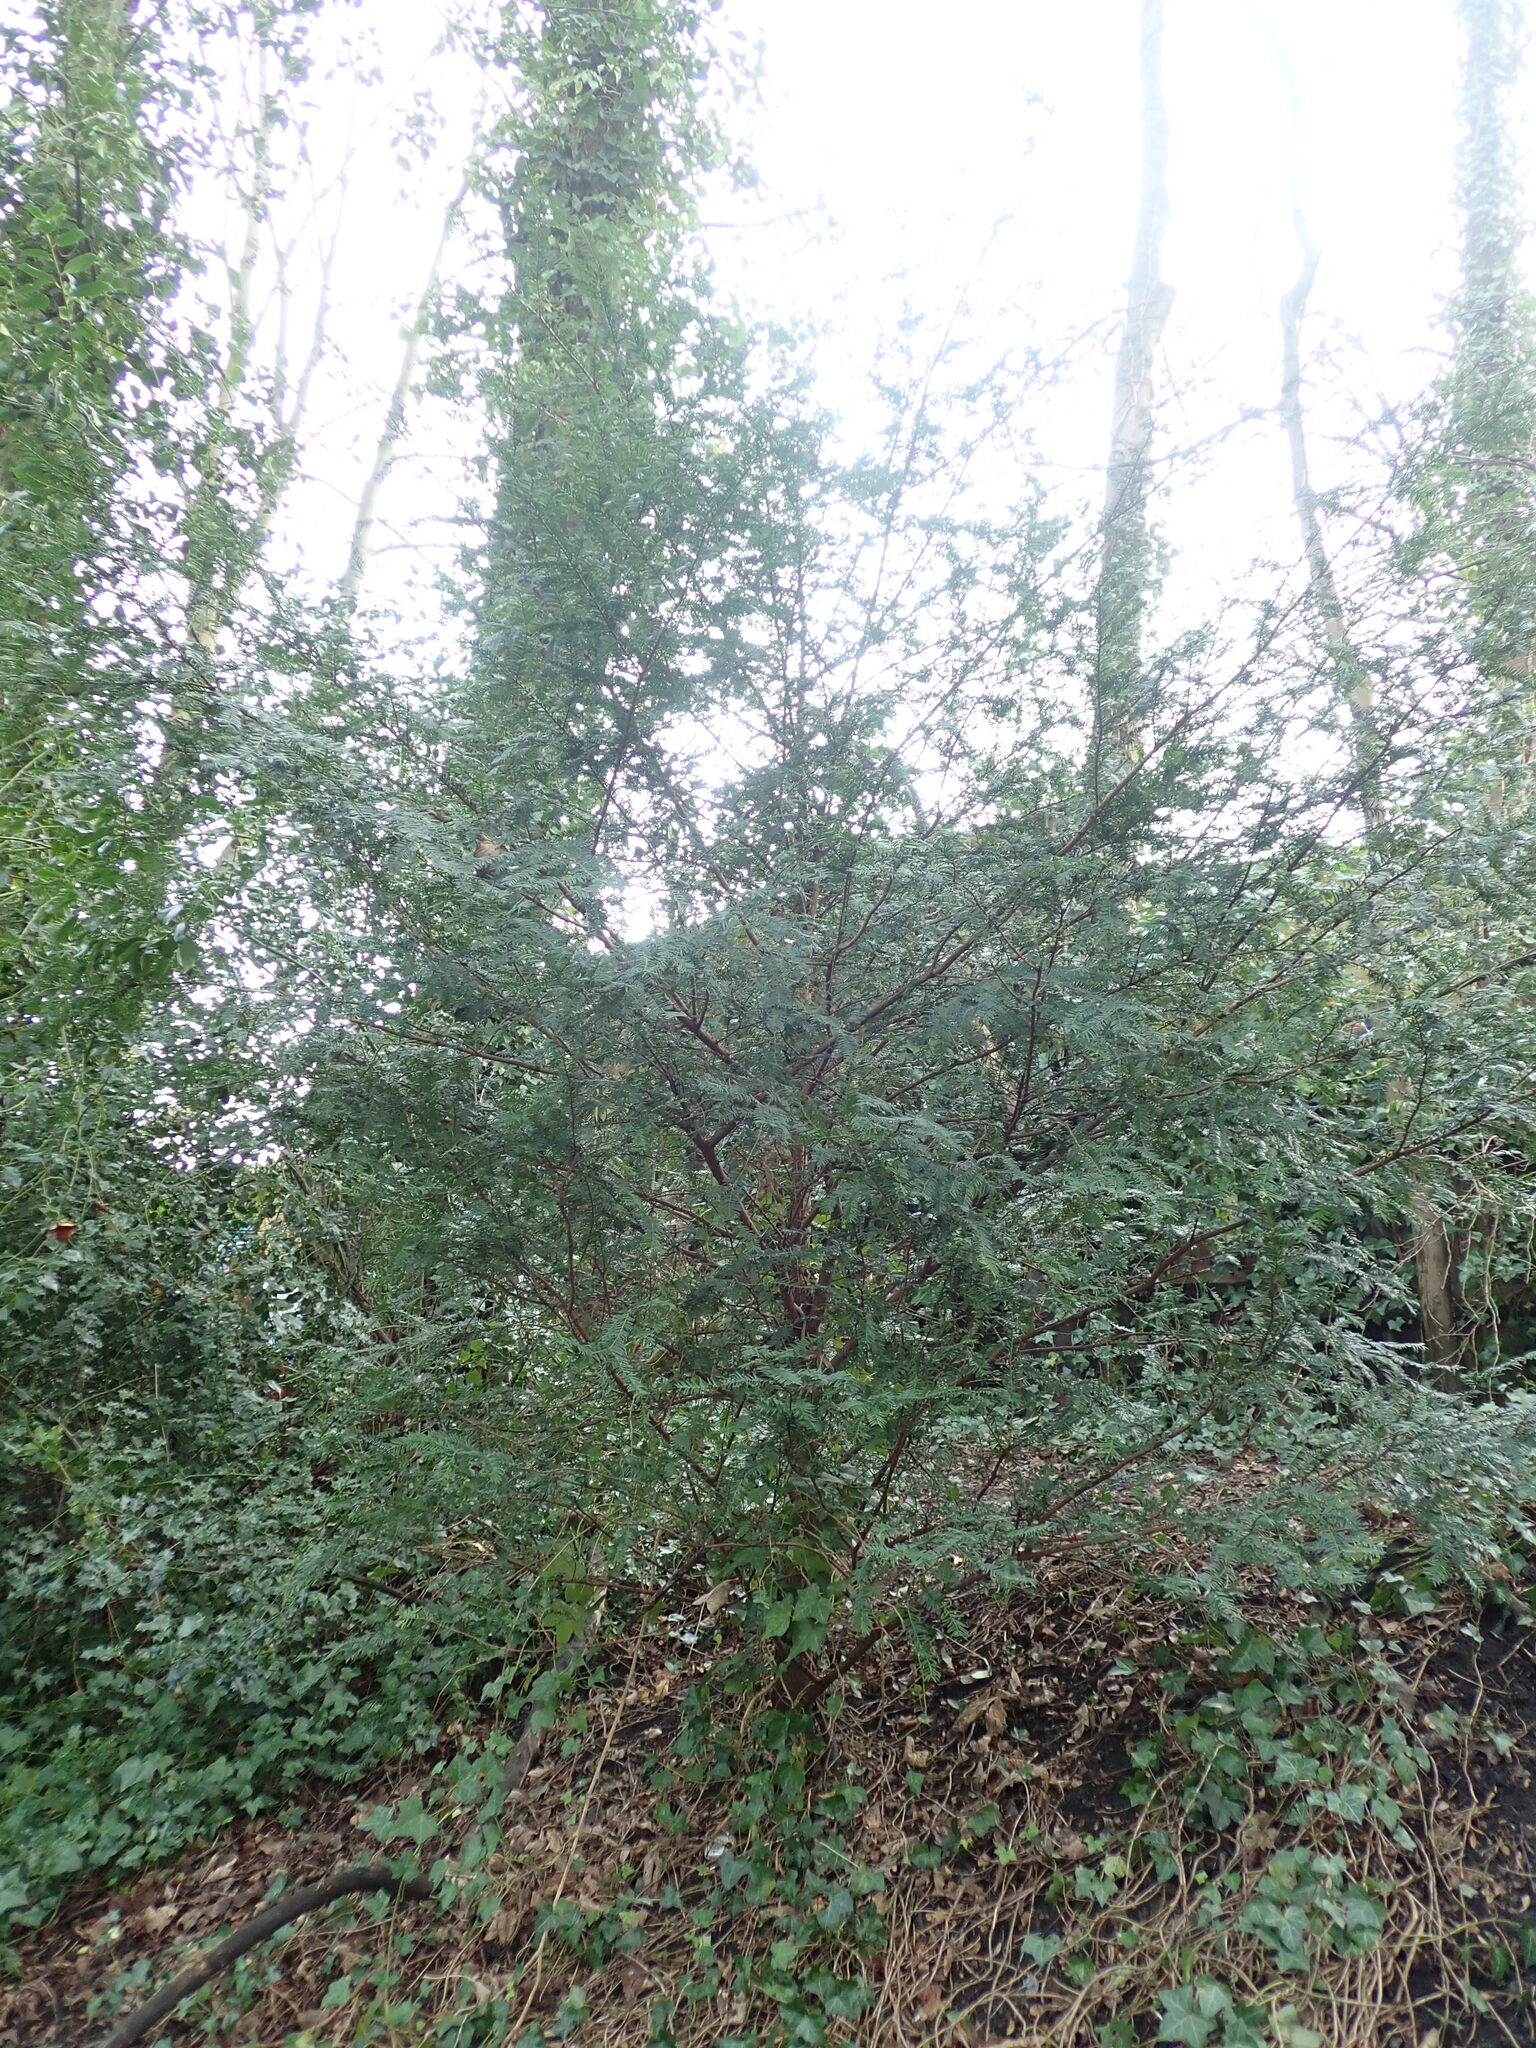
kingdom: Plantae
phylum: Tracheophyta
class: Pinopsida
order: Pinales
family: Taxaceae
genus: Taxus
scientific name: Taxus baccata
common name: Yew
